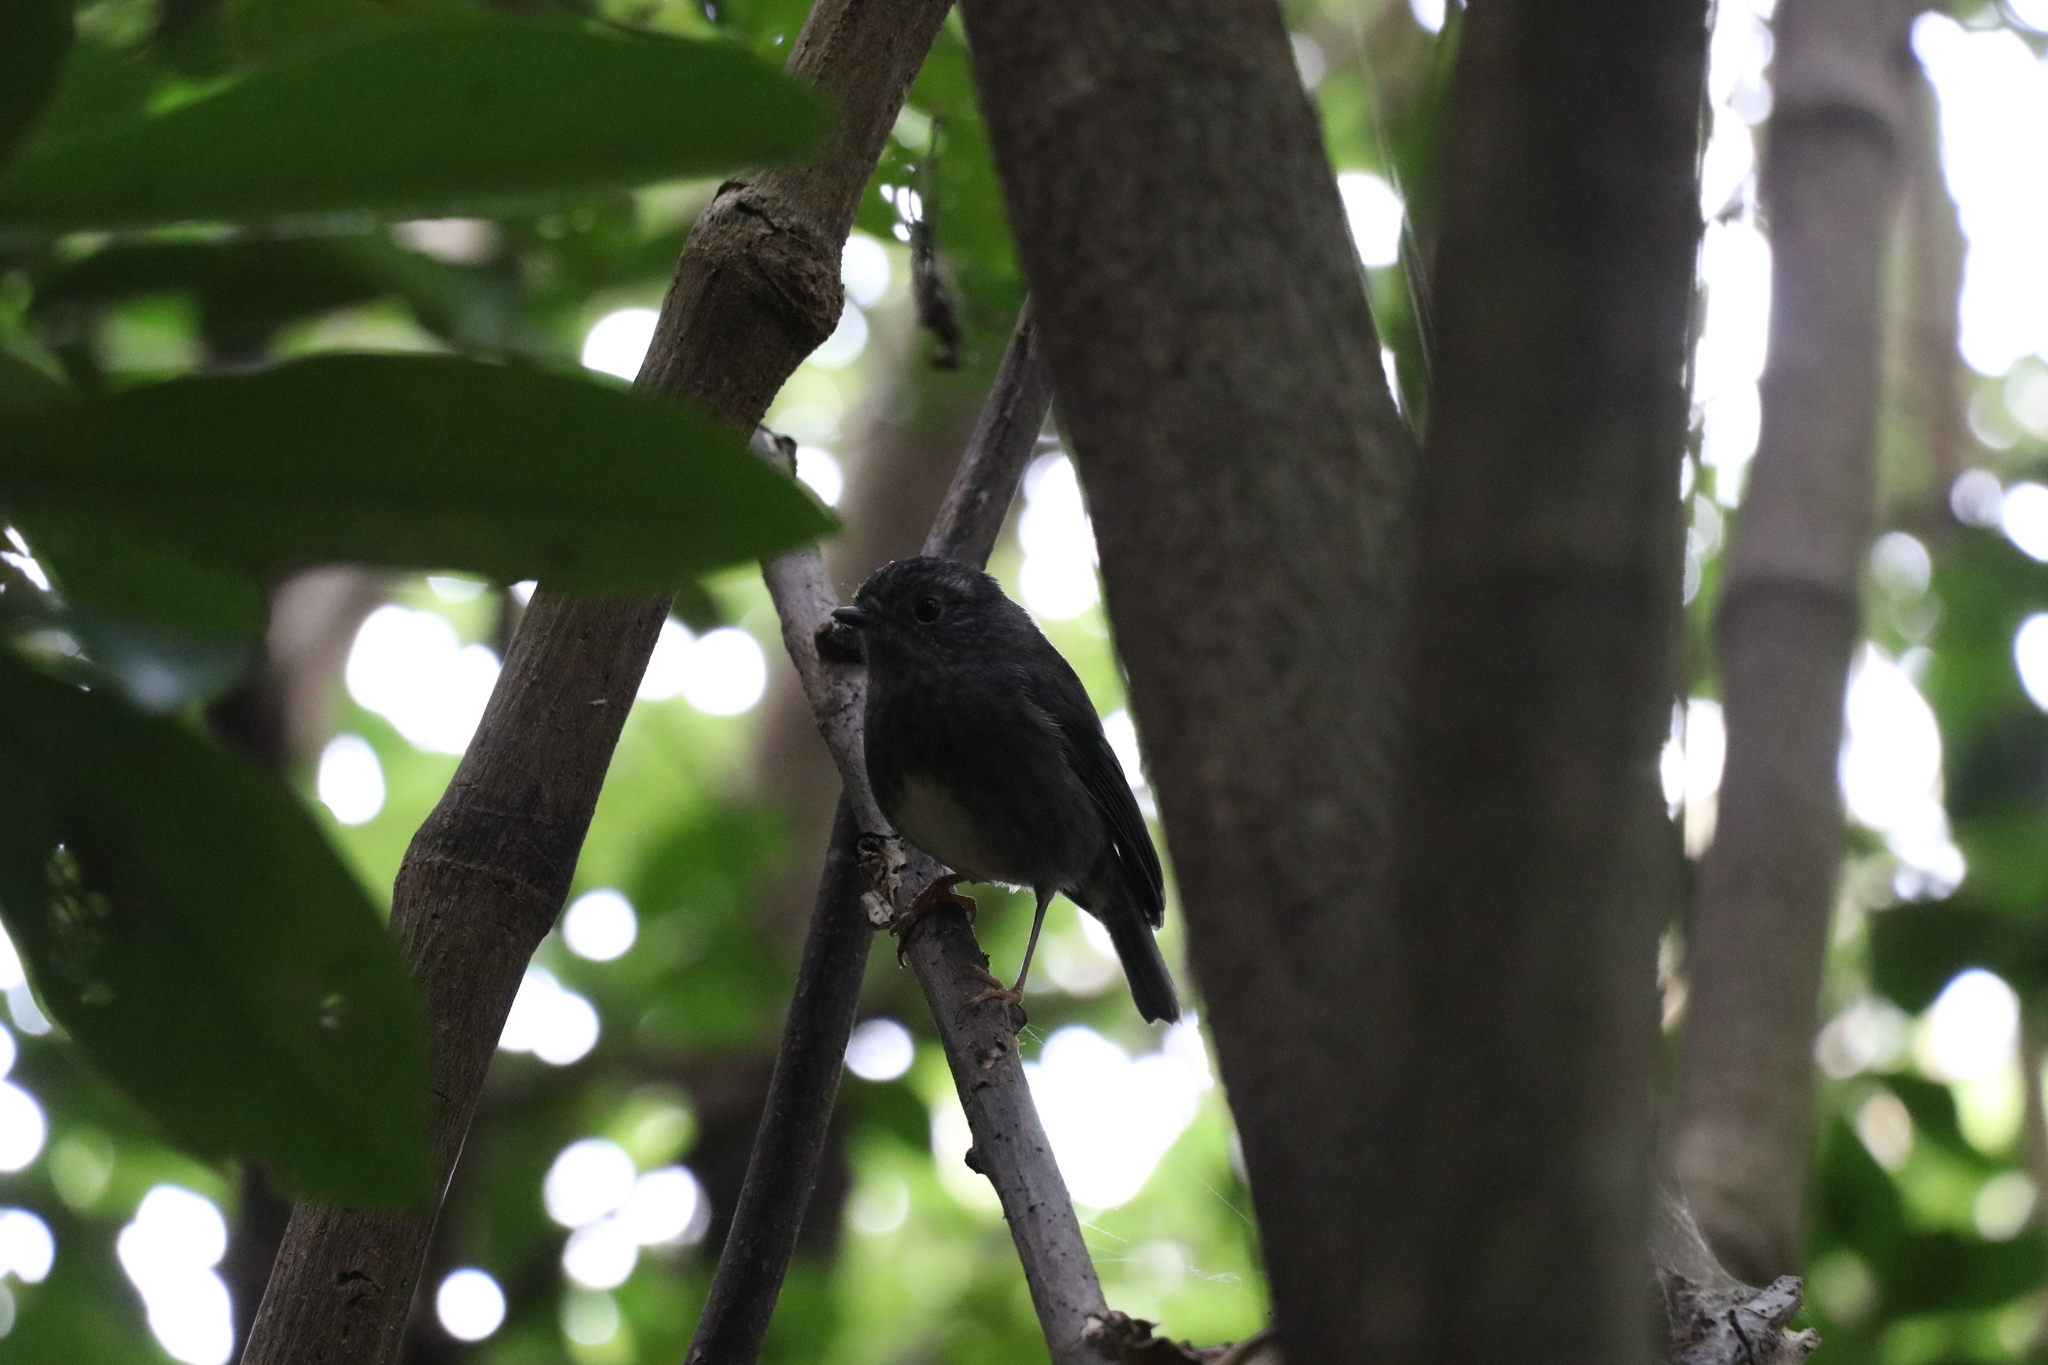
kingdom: Animalia
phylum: Chordata
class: Aves
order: Passeriformes
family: Petroicidae
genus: Petroica
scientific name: Petroica australis
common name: New zealand robin
